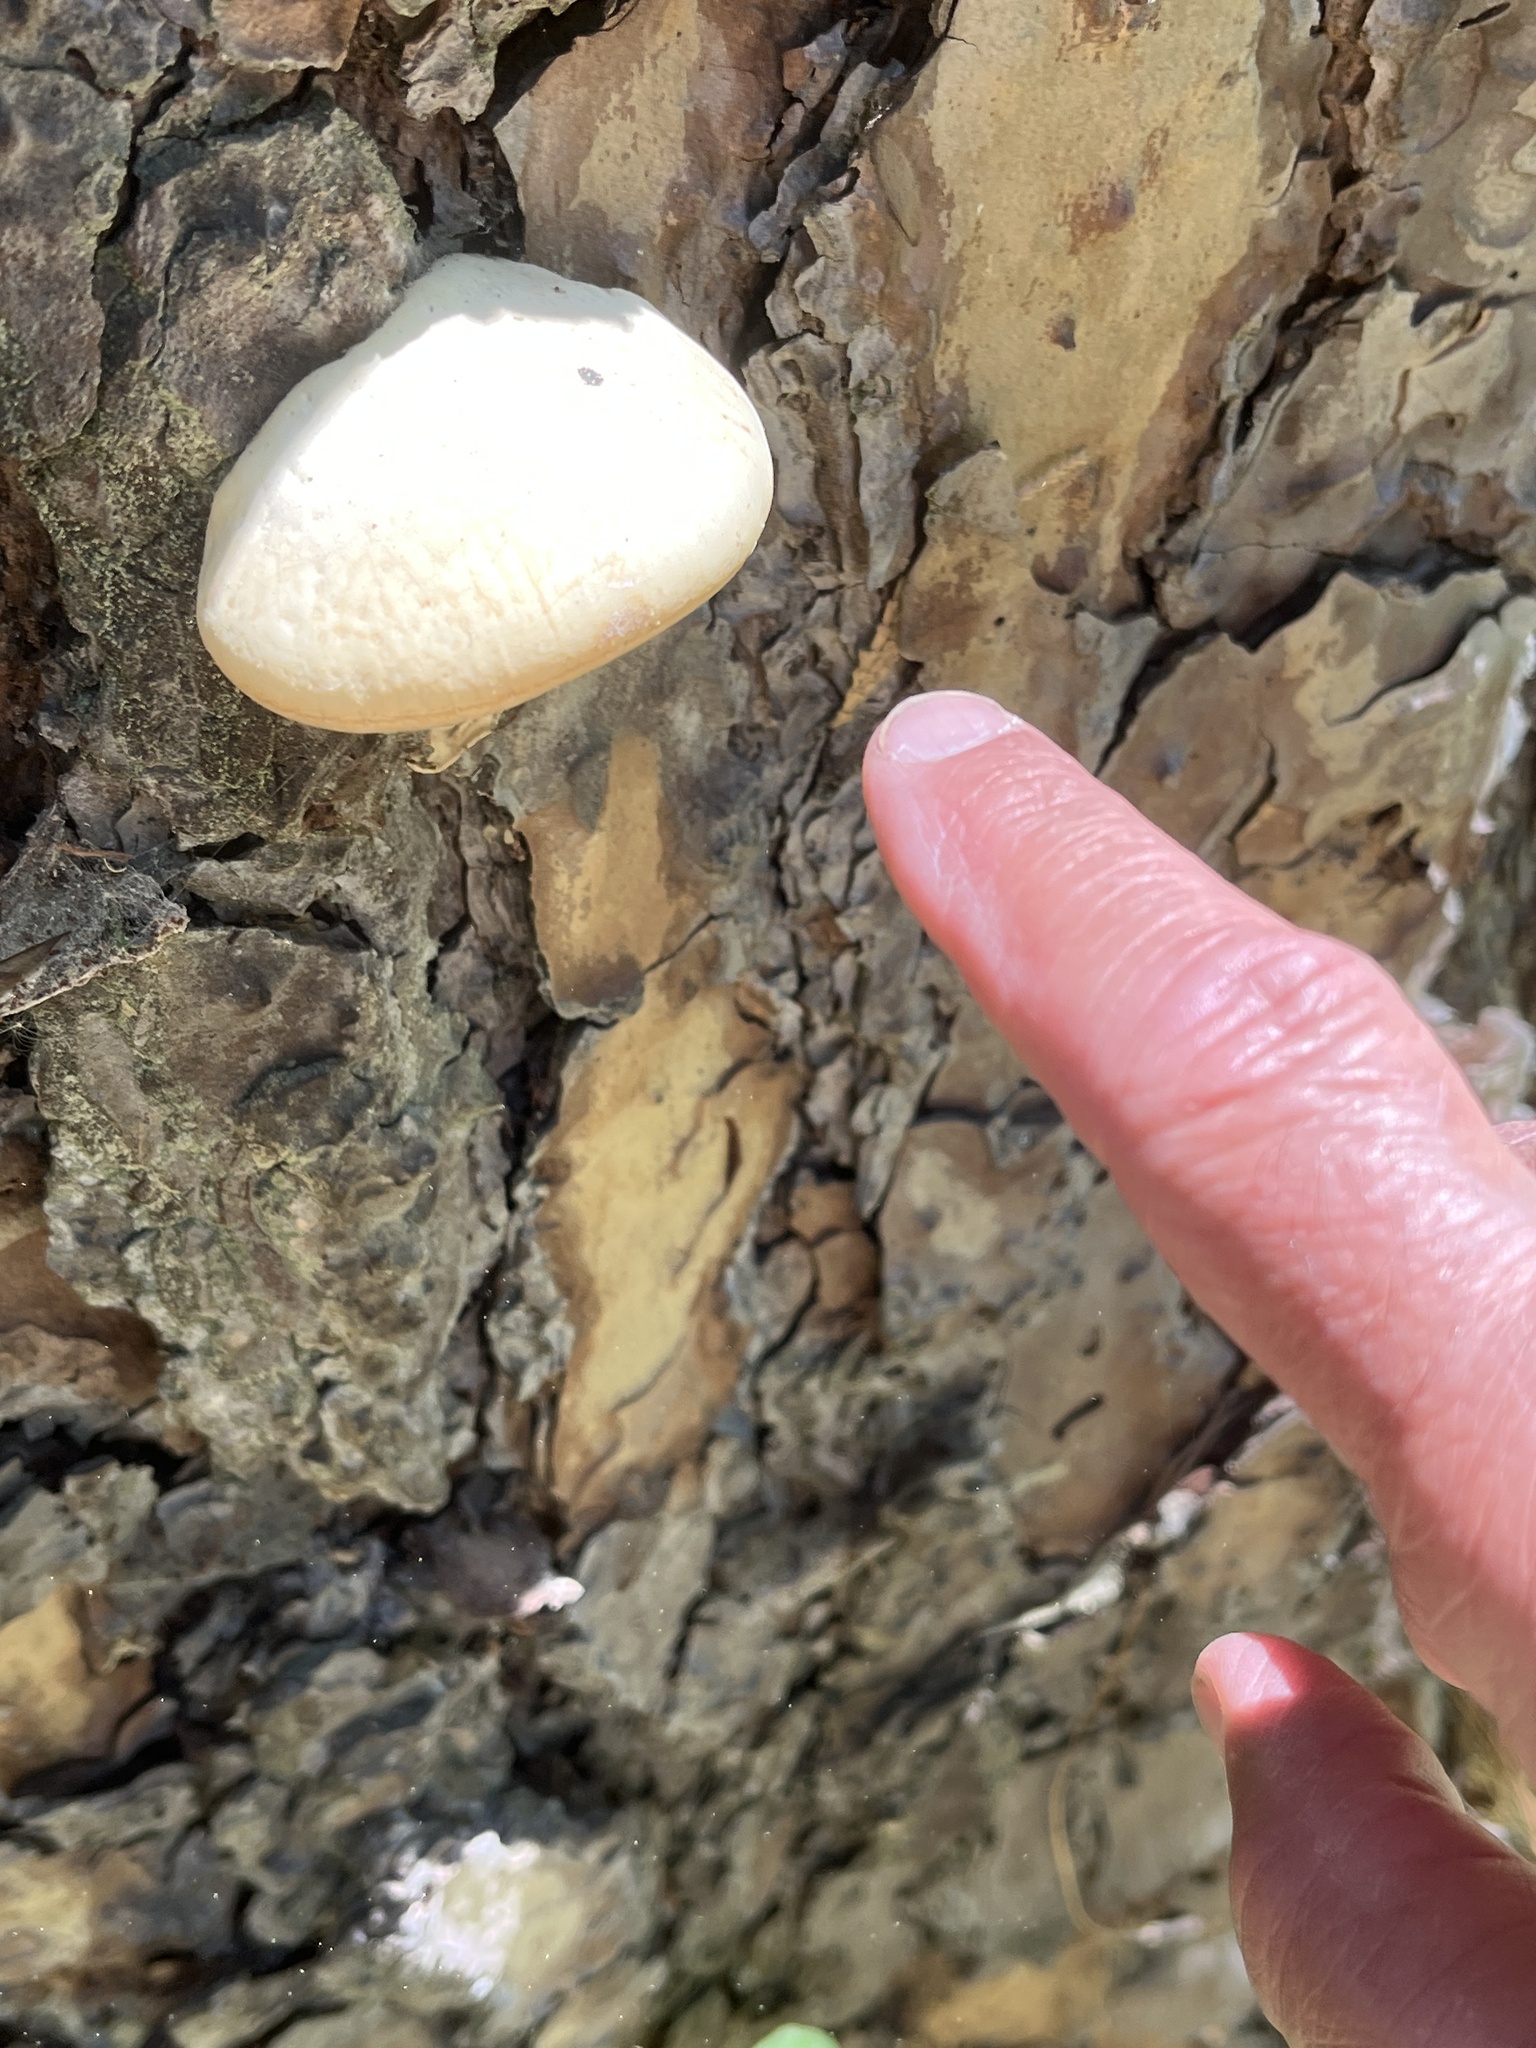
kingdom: Fungi
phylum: Basidiomycota
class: Agaricomycetes
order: Polyporales
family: Polyporaceae
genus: Cryptoporus
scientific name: Cryptoporus volvatus
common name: Veiled polypore
